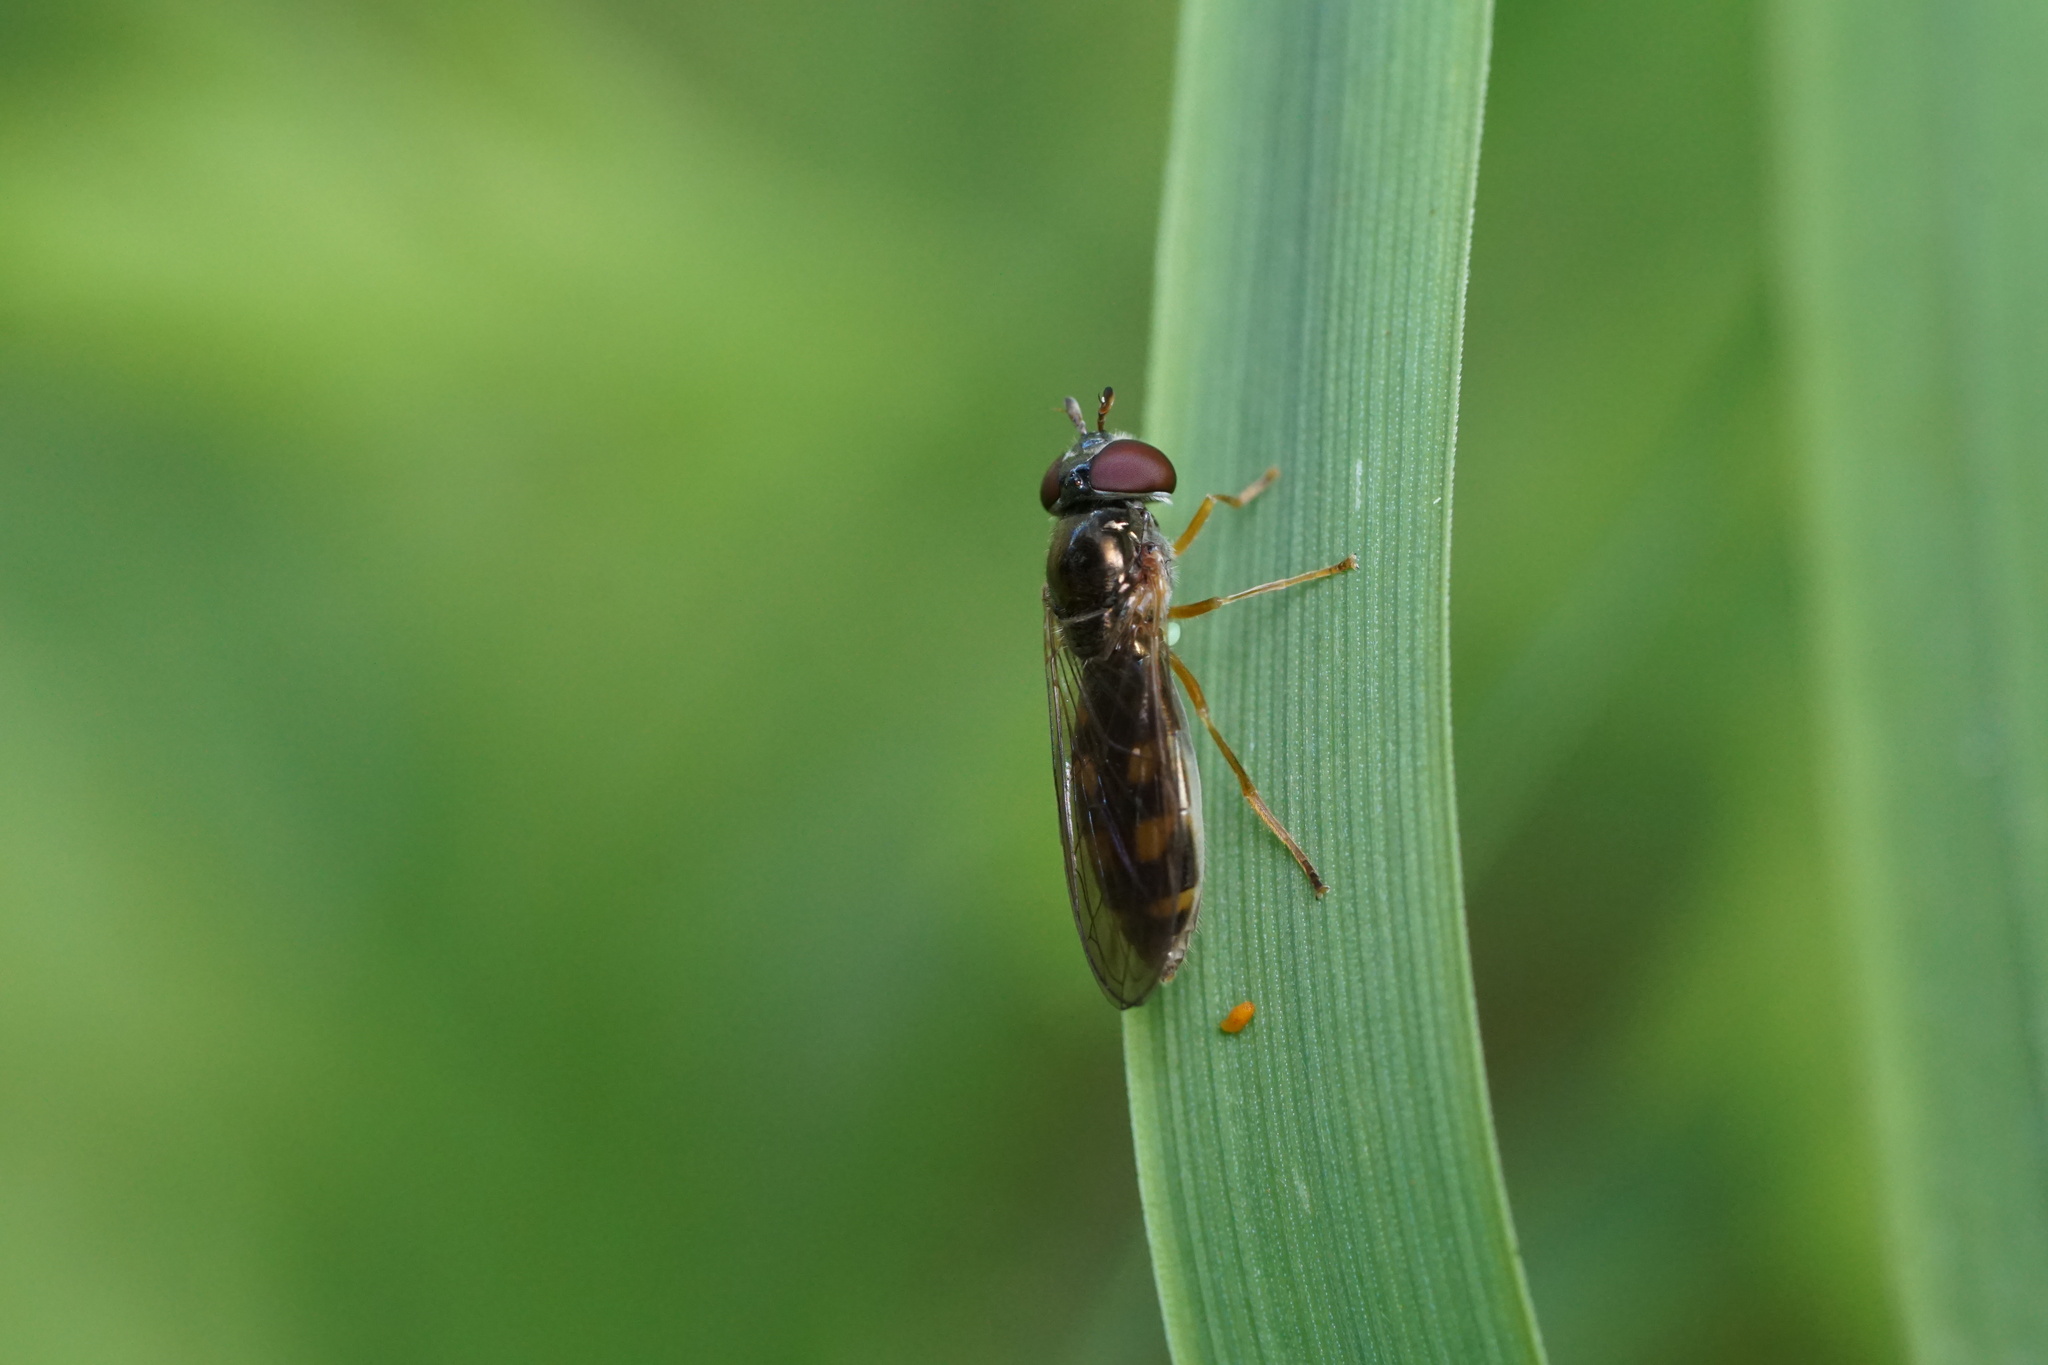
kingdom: Animalia
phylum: Arthropoda
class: Insecta
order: Diptera
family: Syrphidae
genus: Melanostoma
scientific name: Melanostoma mellina
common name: Hover fly
